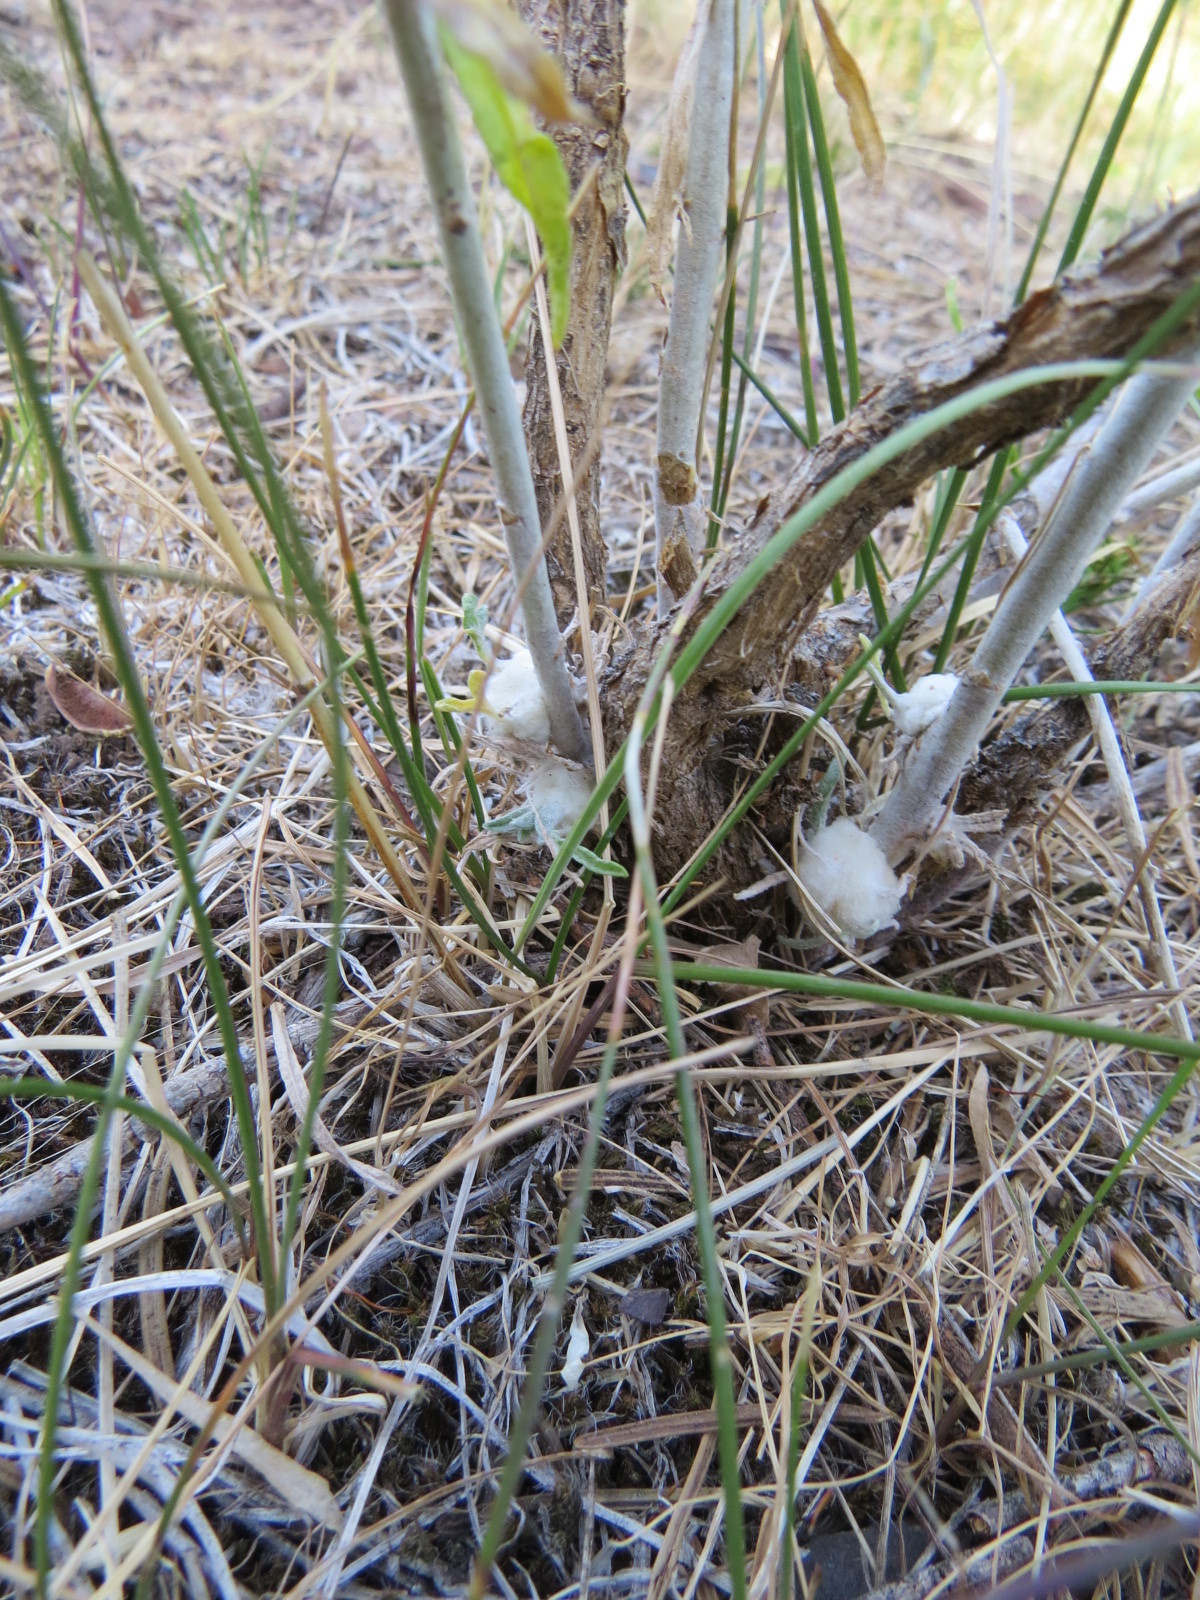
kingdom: Animalia
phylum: Arthropoda
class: Insecta
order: Diptera
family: Tephritidae
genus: Aciurina
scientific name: Aciurina bigeloviae
